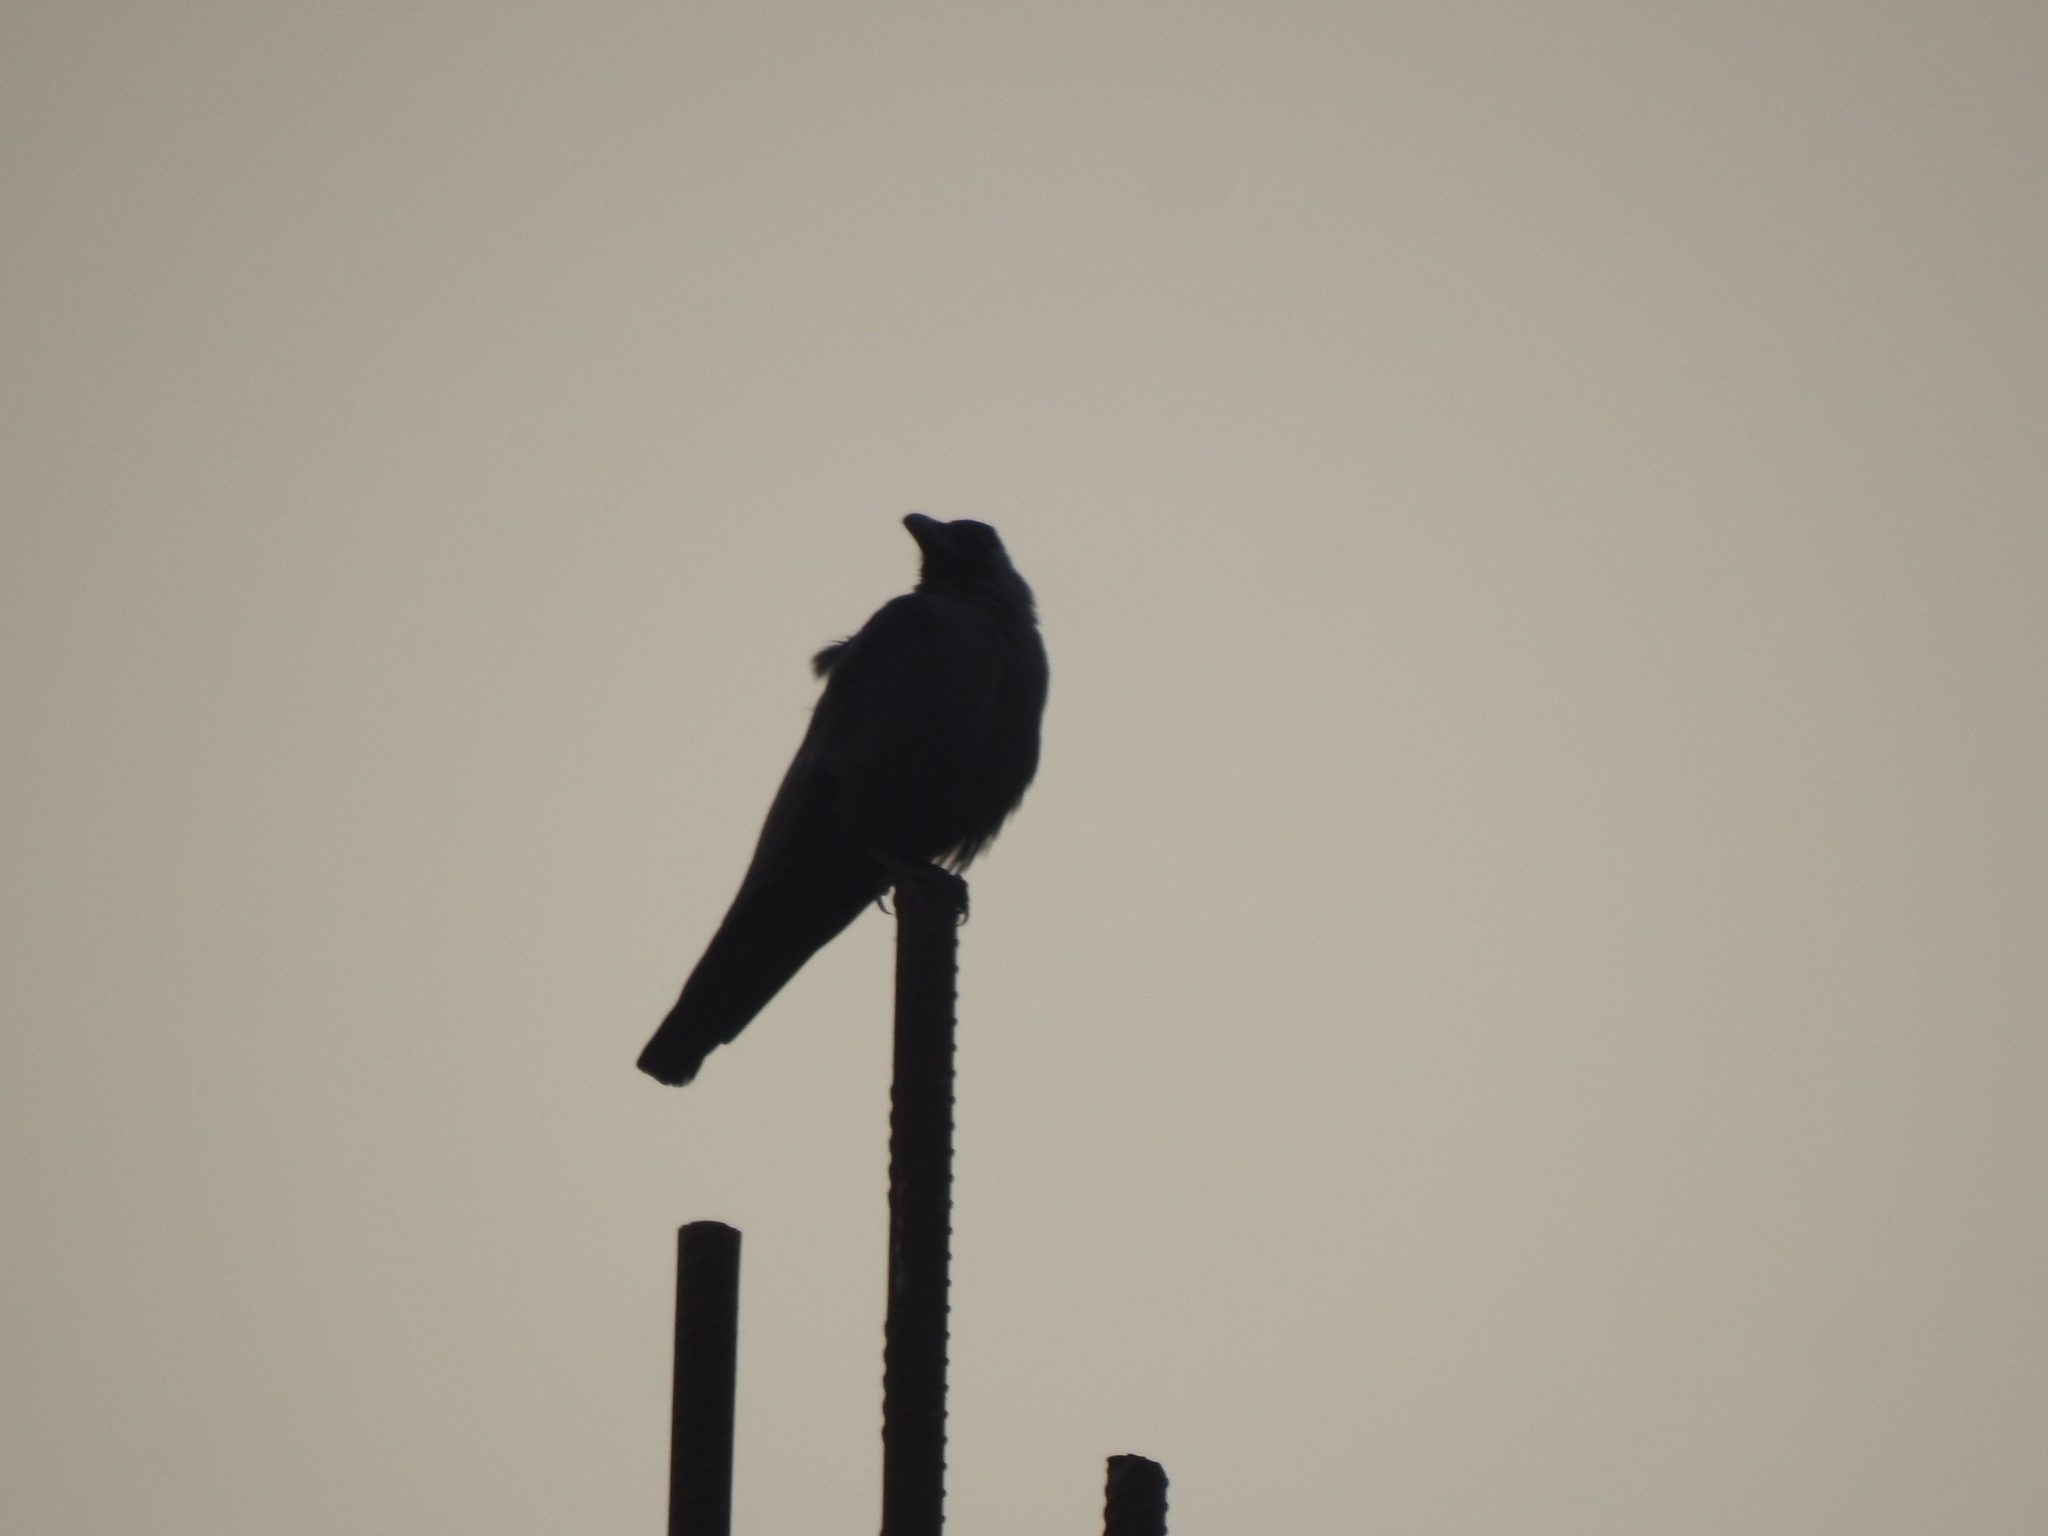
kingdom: Animalia
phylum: Chordata
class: Aves
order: Passeriformes
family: Corvidae
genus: Corvus
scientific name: Corvus macrorhynchos
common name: Large-billed crow
